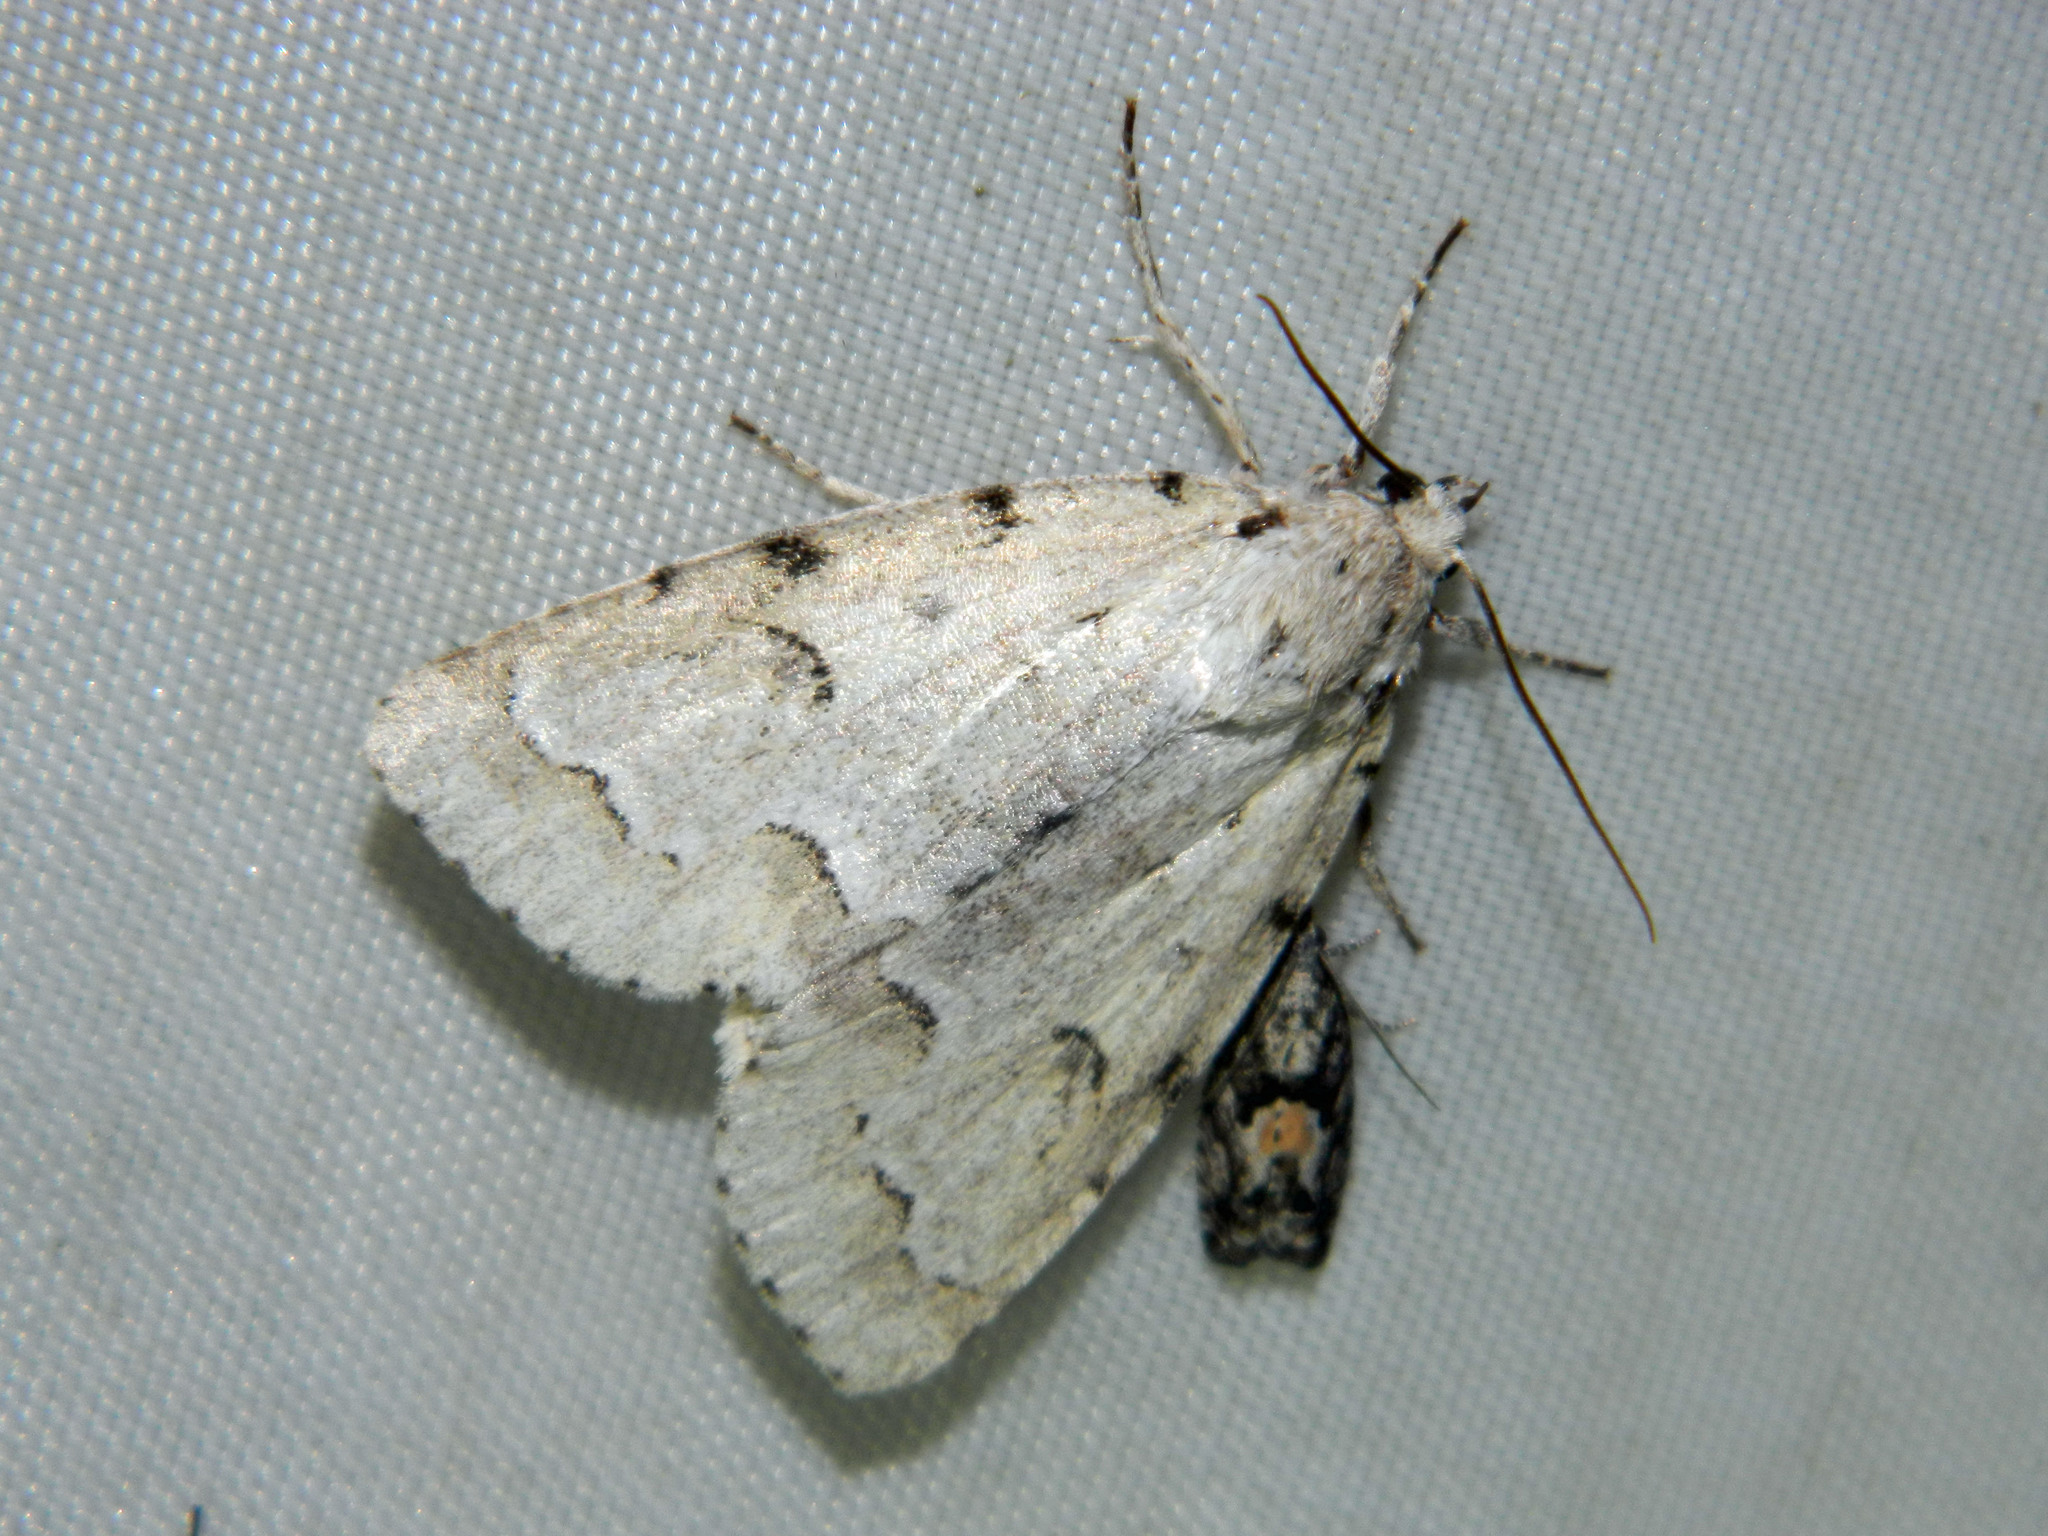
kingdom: Animalia
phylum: Arthropoda
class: Insecta
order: Lepidoptera
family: Noctuidae
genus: Acronicta
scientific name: Acronicta innotata
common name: Unmarked dagger
